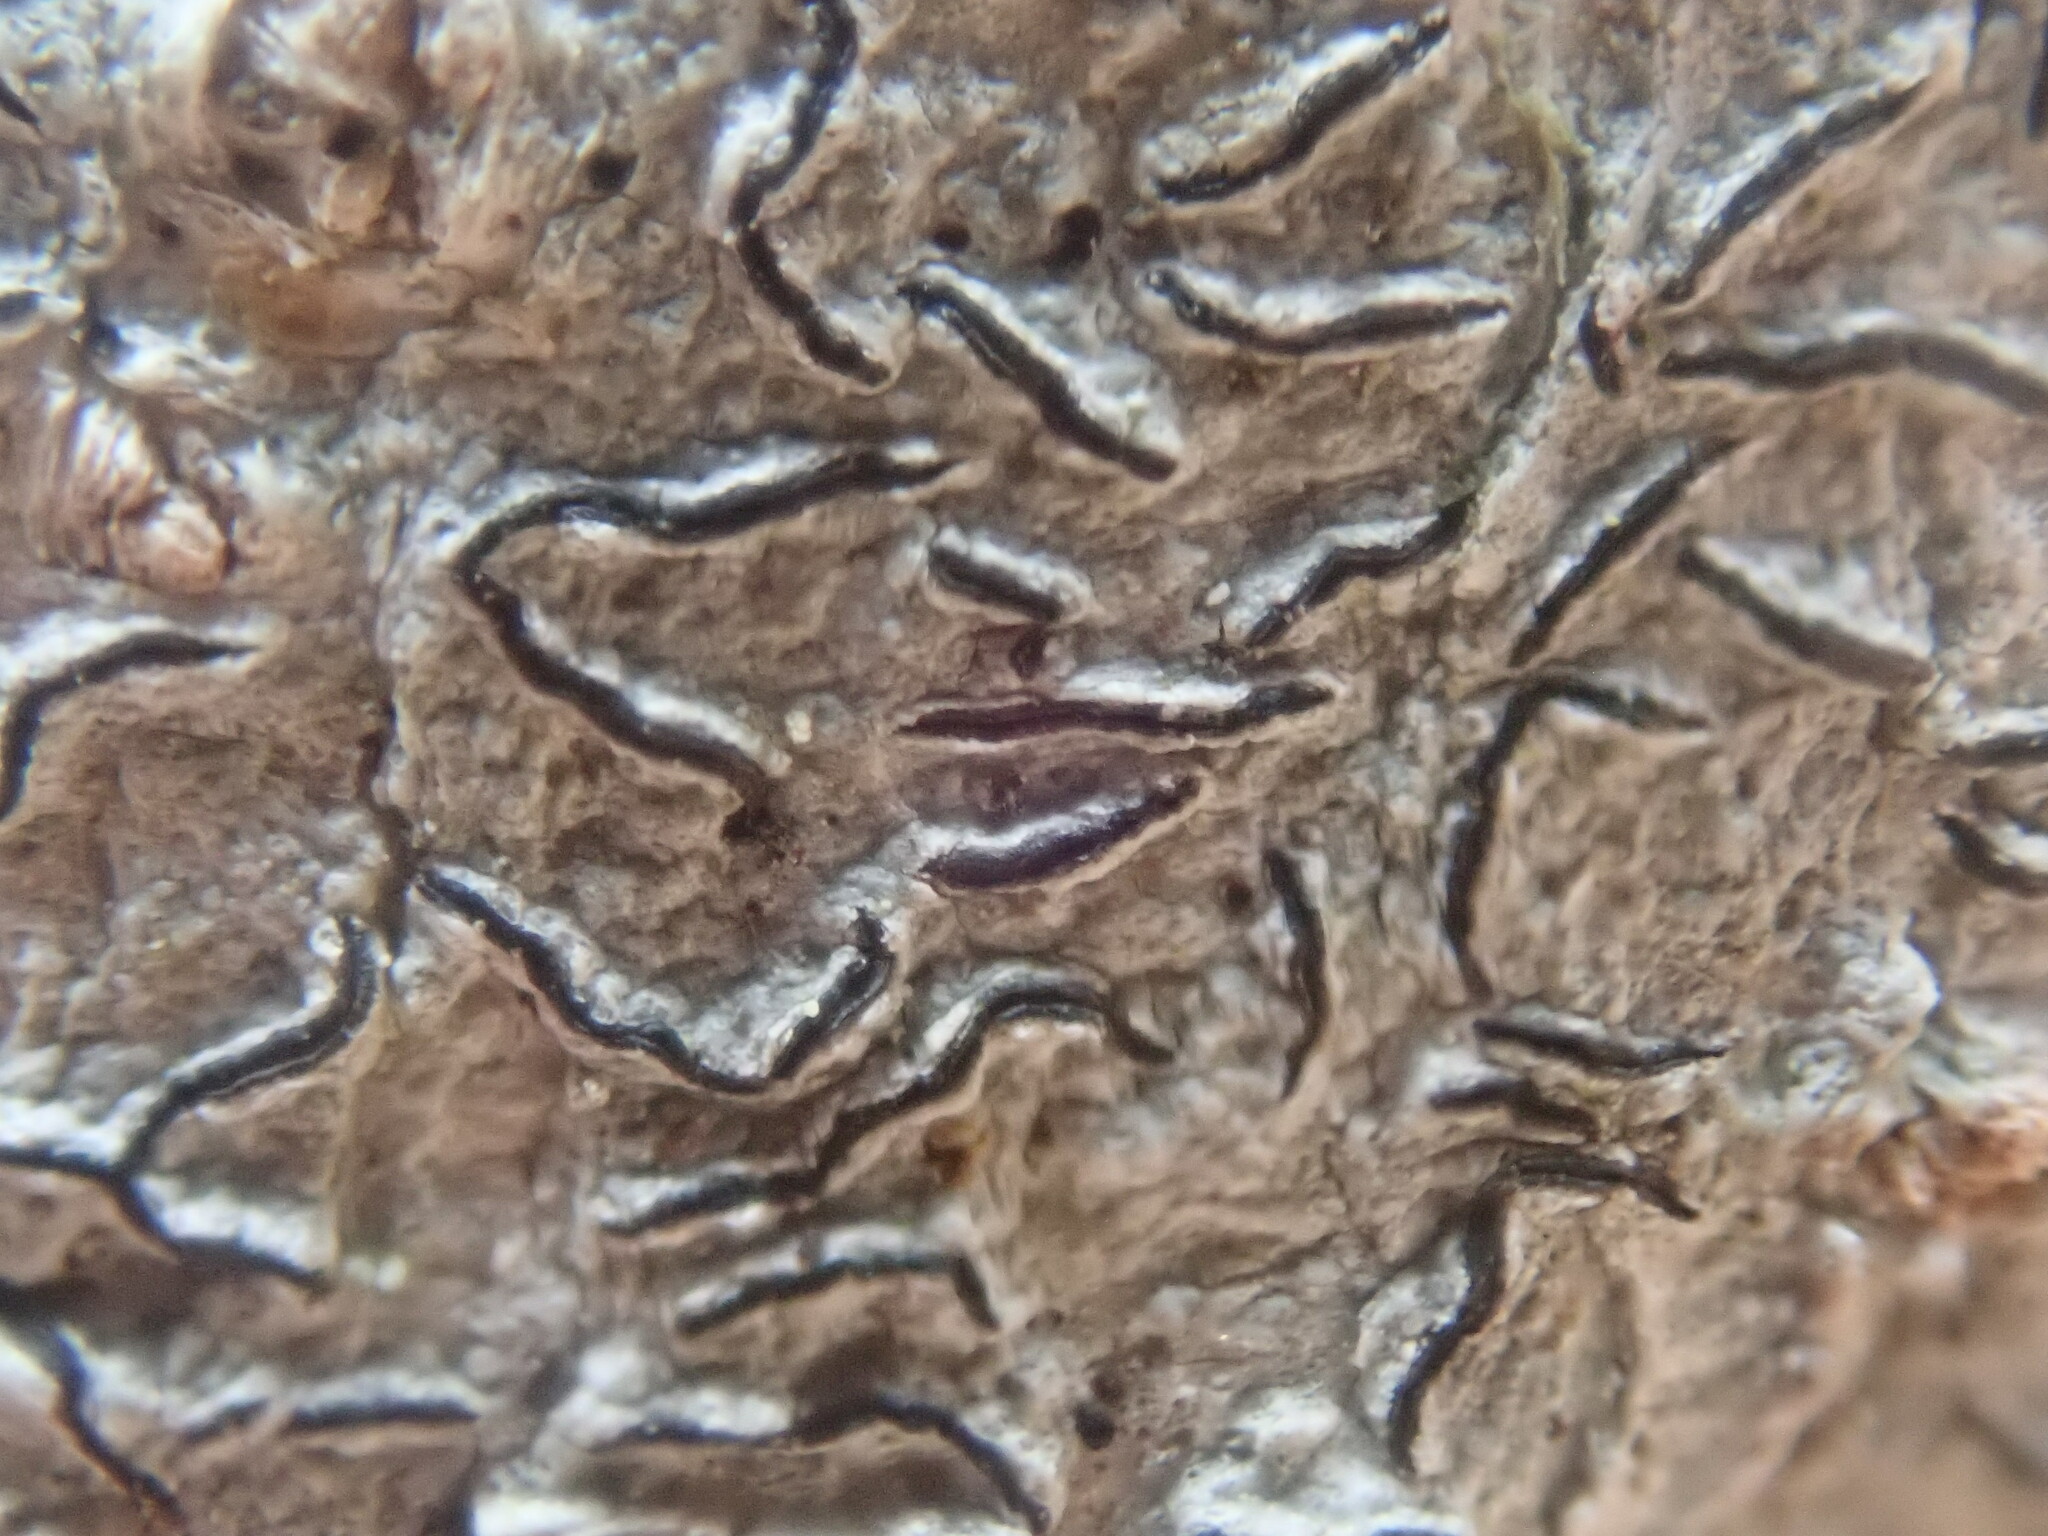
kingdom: Fungi
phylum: Ascomycota
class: Lecanoromycetes
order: Ostropales
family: Graphidaceae
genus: Graphis
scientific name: Graphis scripta
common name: Script lichen
